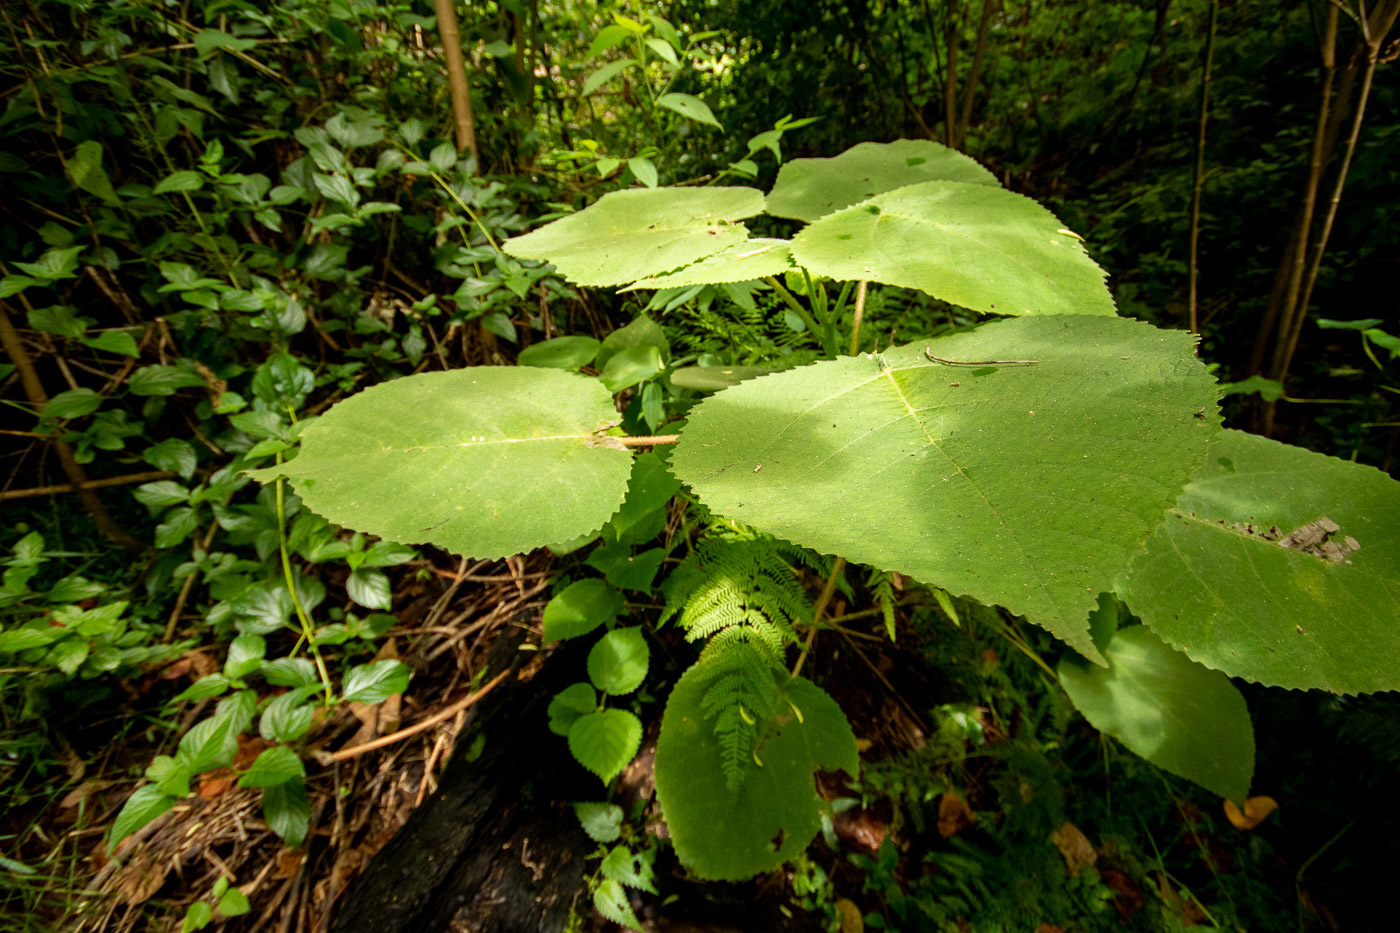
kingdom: Plantae
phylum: Tracheophyta
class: Magnoliopsida
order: Rosales
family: Urticaceae
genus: Dendrocnide
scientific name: Dendrocnide excelsa
